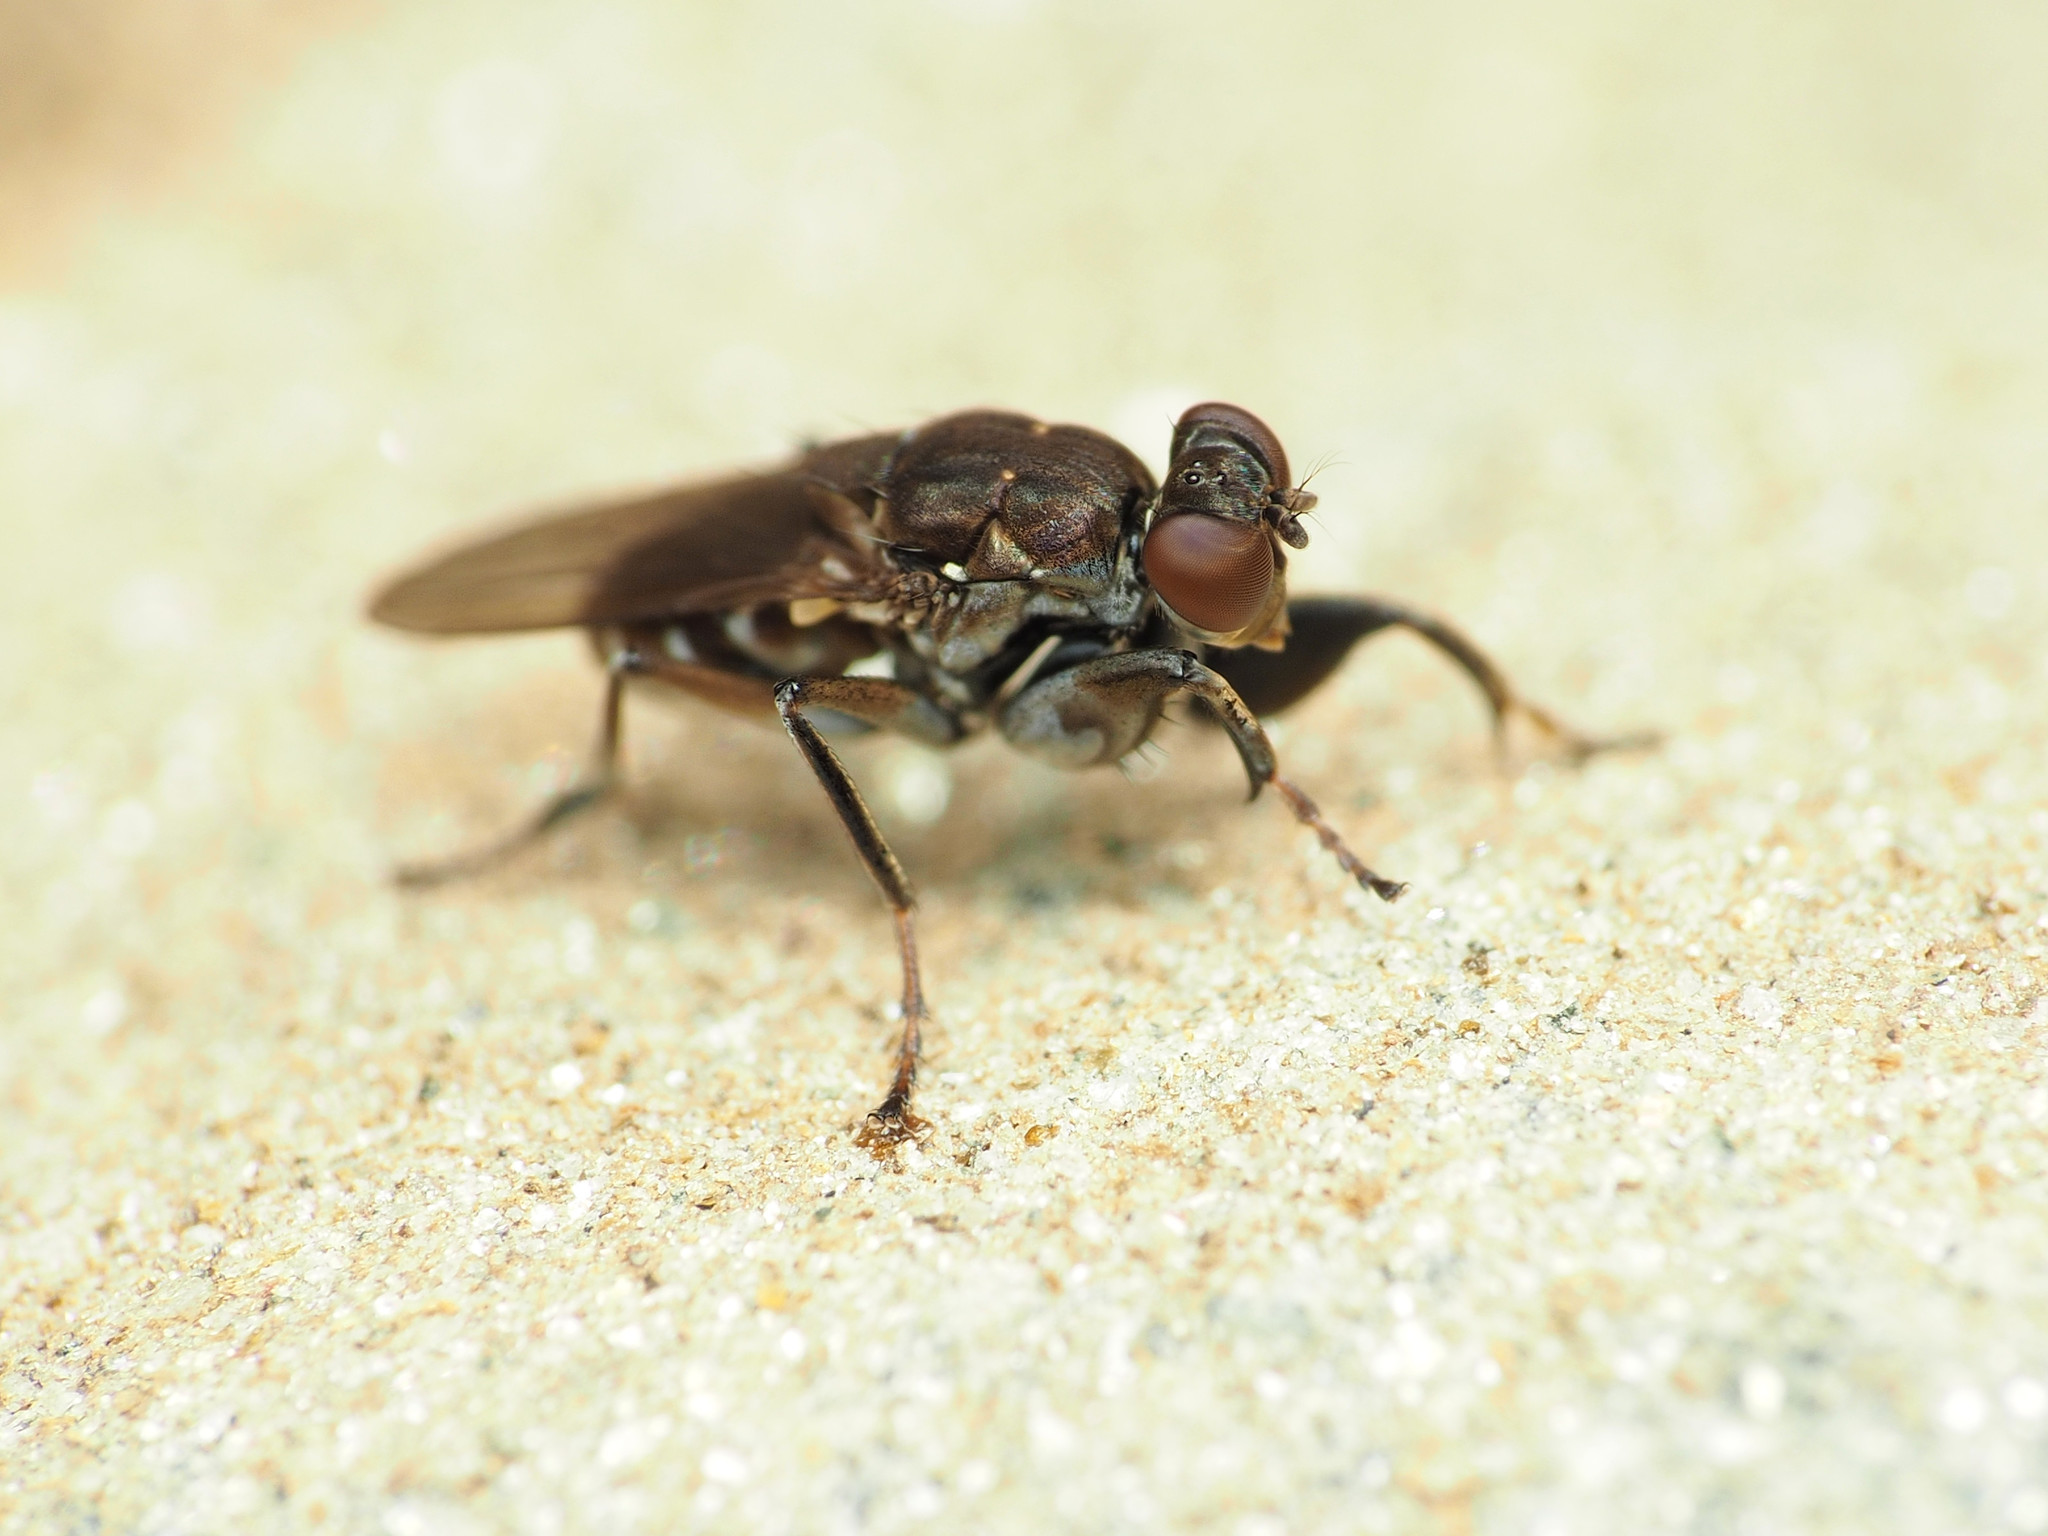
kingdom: Animalia
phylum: Arthropoda
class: Insecta
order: Diptera
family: Ephydridae
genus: Ochthera
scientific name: Ochthera tuberculata
